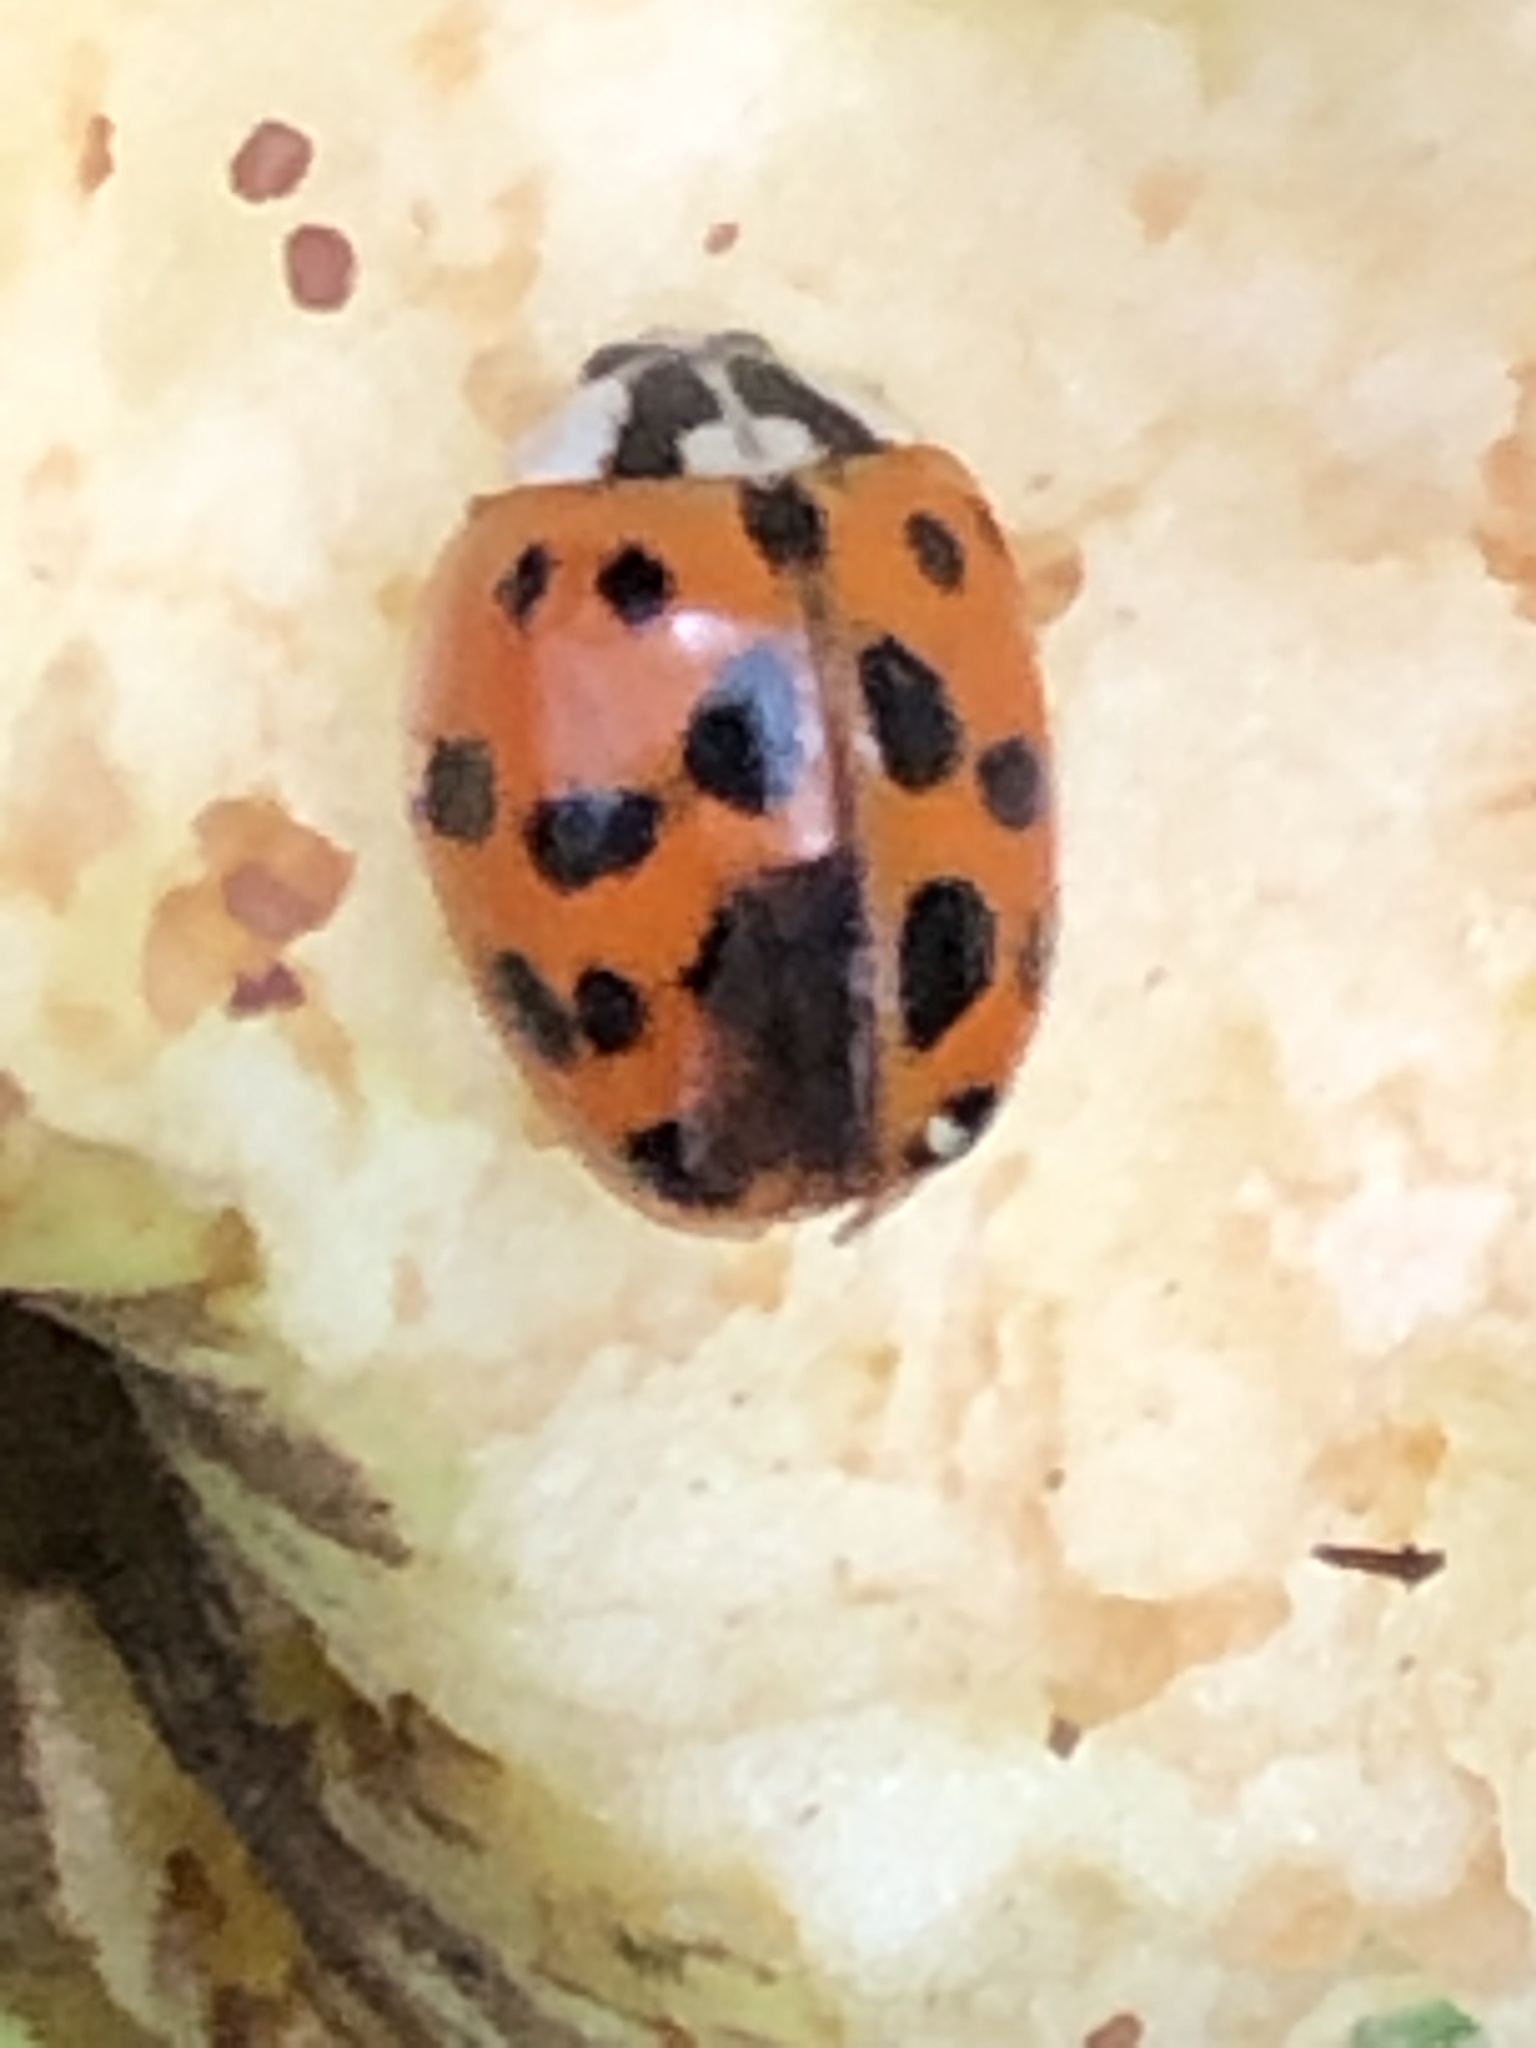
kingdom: Animalia
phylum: Arthropoda
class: Insecta
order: Coleoptera
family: Coccinellidae
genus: Harmonia
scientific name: Harmonia axyridis
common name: Harlequin ladybird
